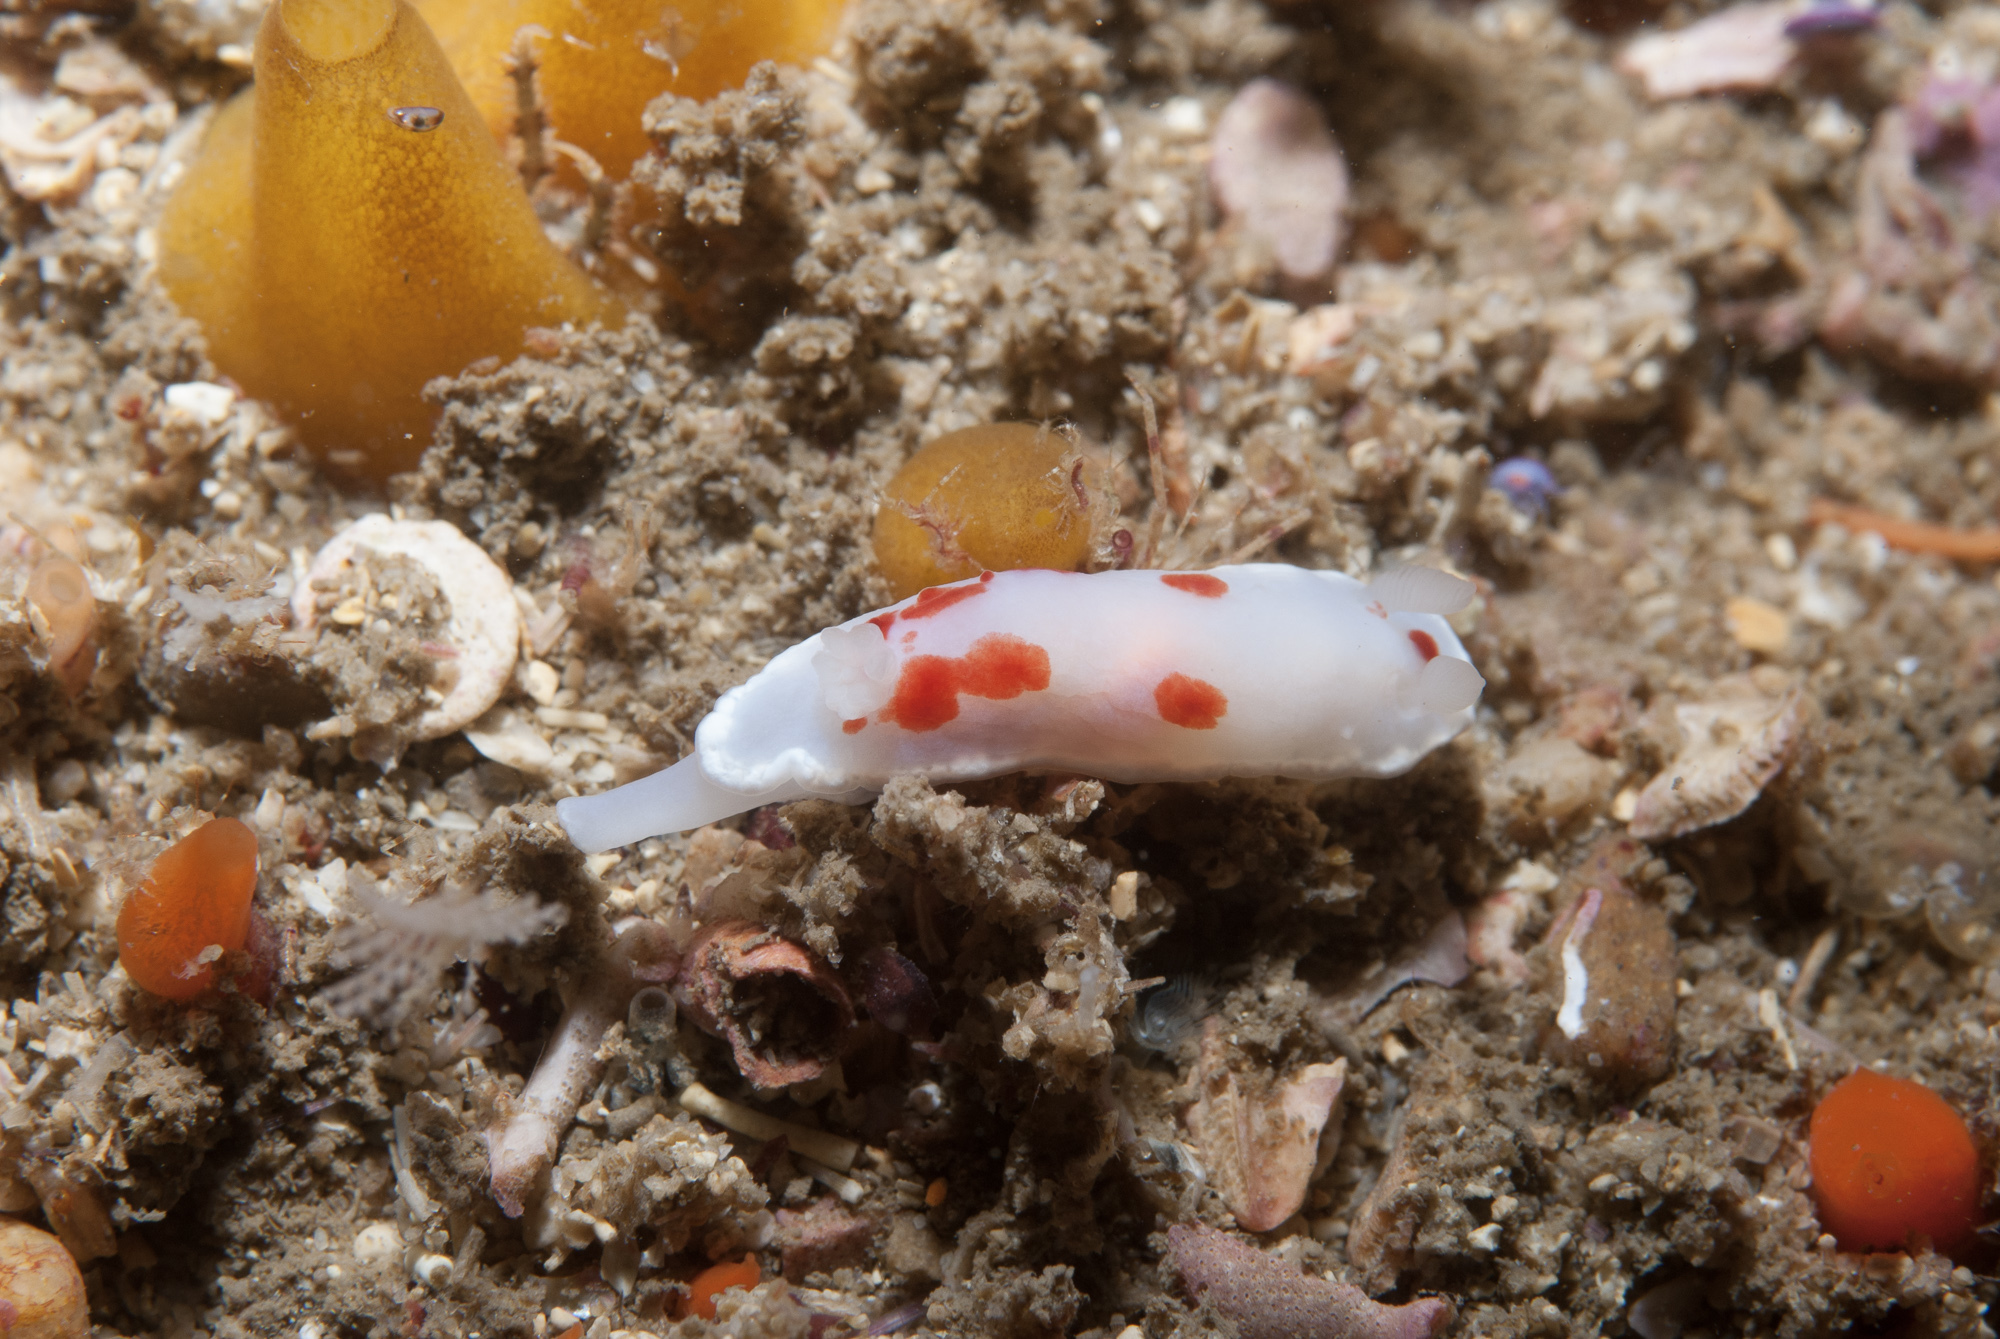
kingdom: Animalia
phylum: Mollusca
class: Gastropoda
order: Nudibranchia
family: Chromodorididae
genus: Goniobranchus
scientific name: Goniobranchus heatherae
